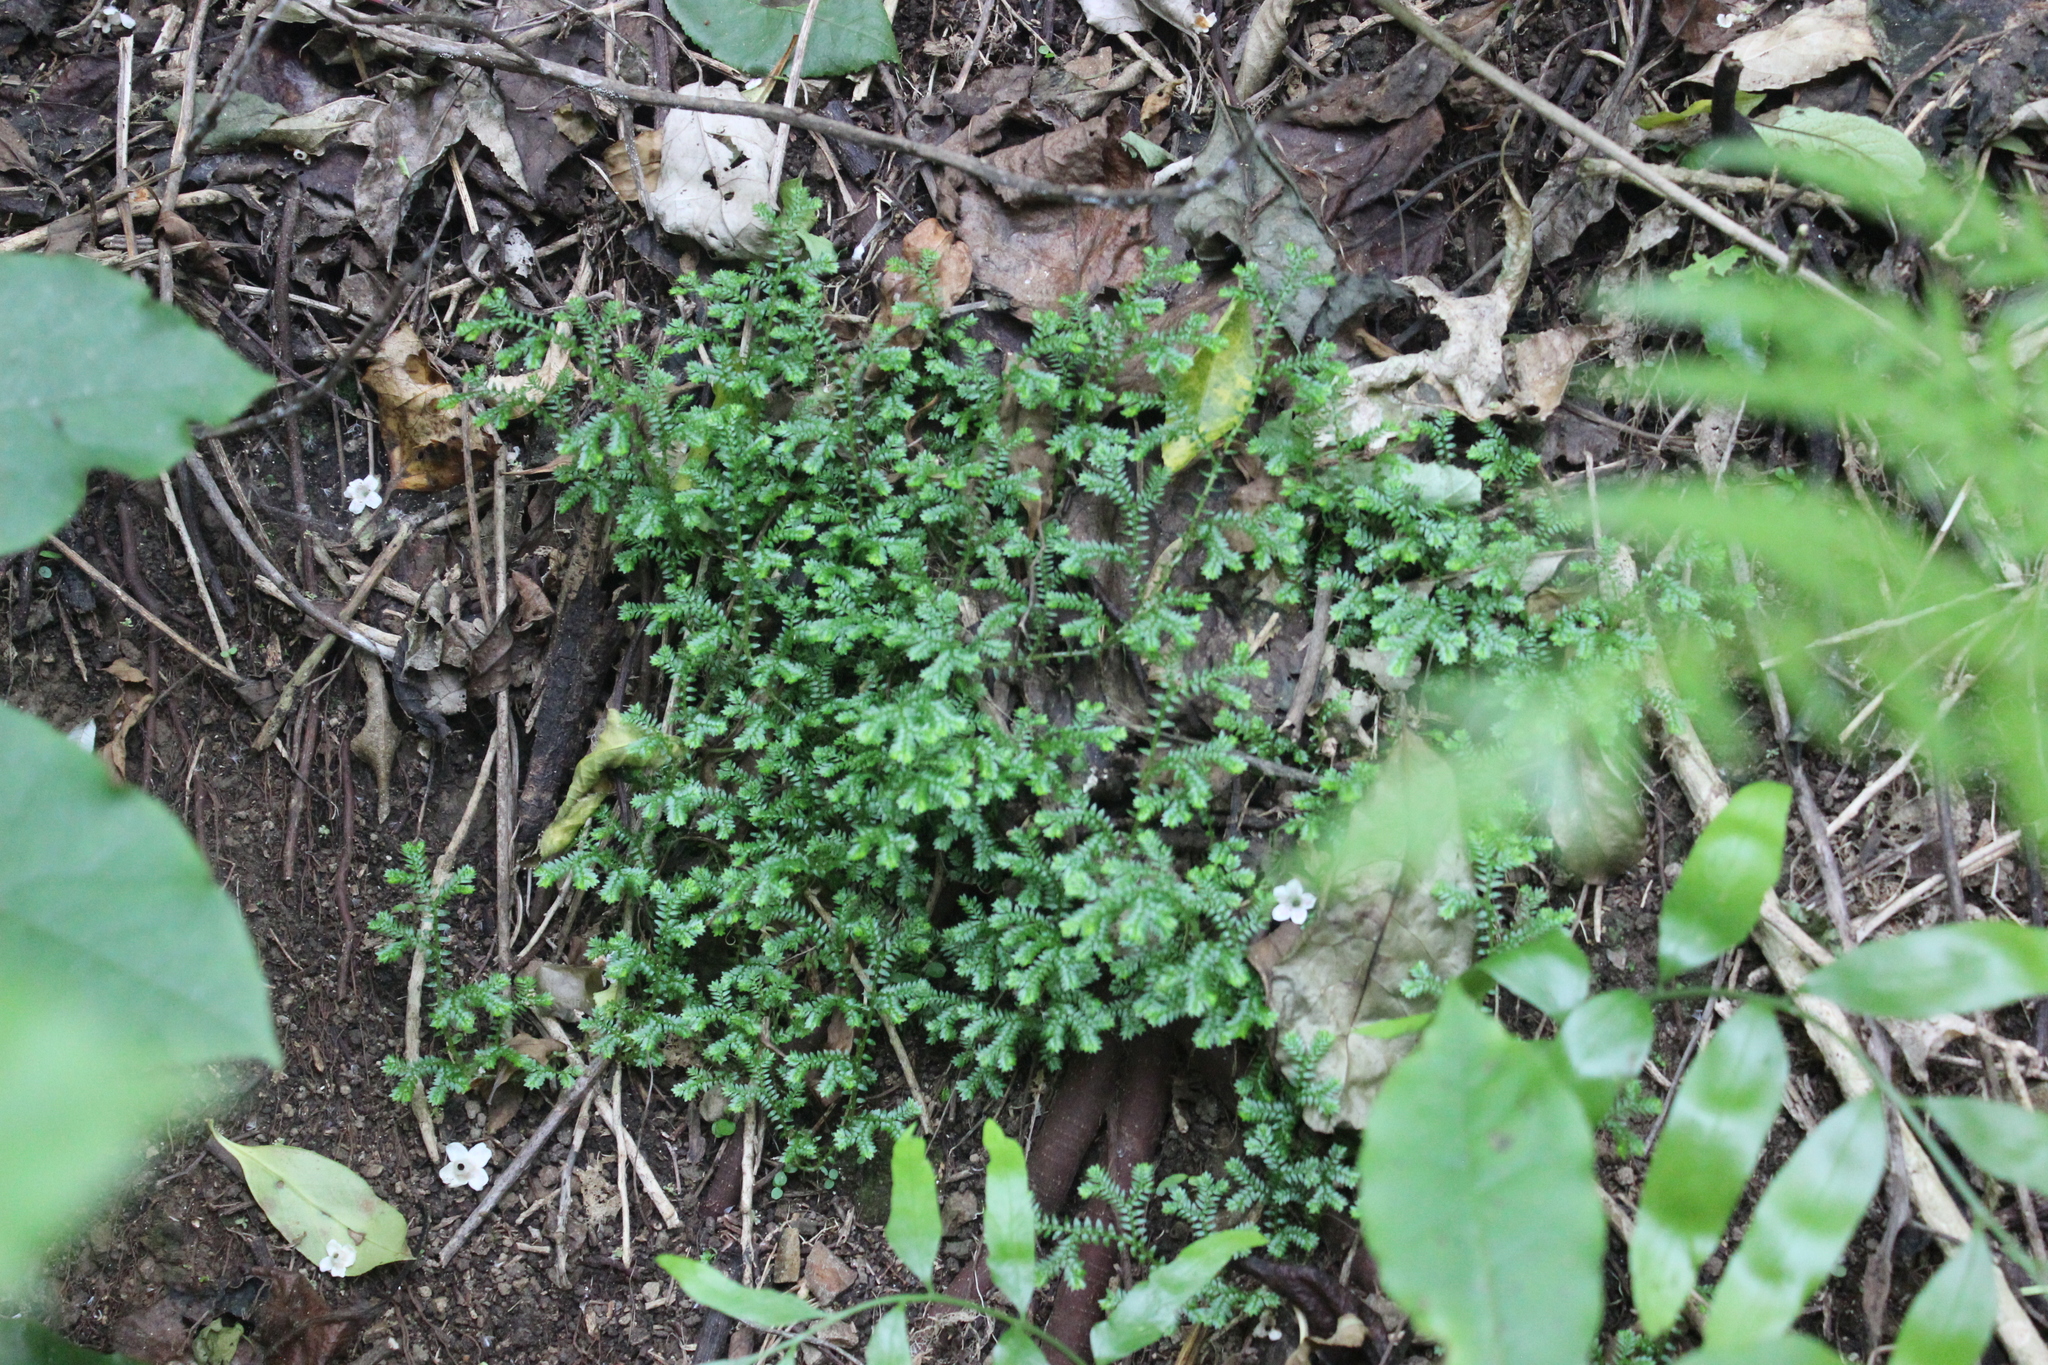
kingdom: Plantae
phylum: Tracheophyta
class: Lycopodiopsida
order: Selaginellales
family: Selaginellaceae
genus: Selaginella
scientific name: Selaginella kraussiana
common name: Krauss' spikemoss
